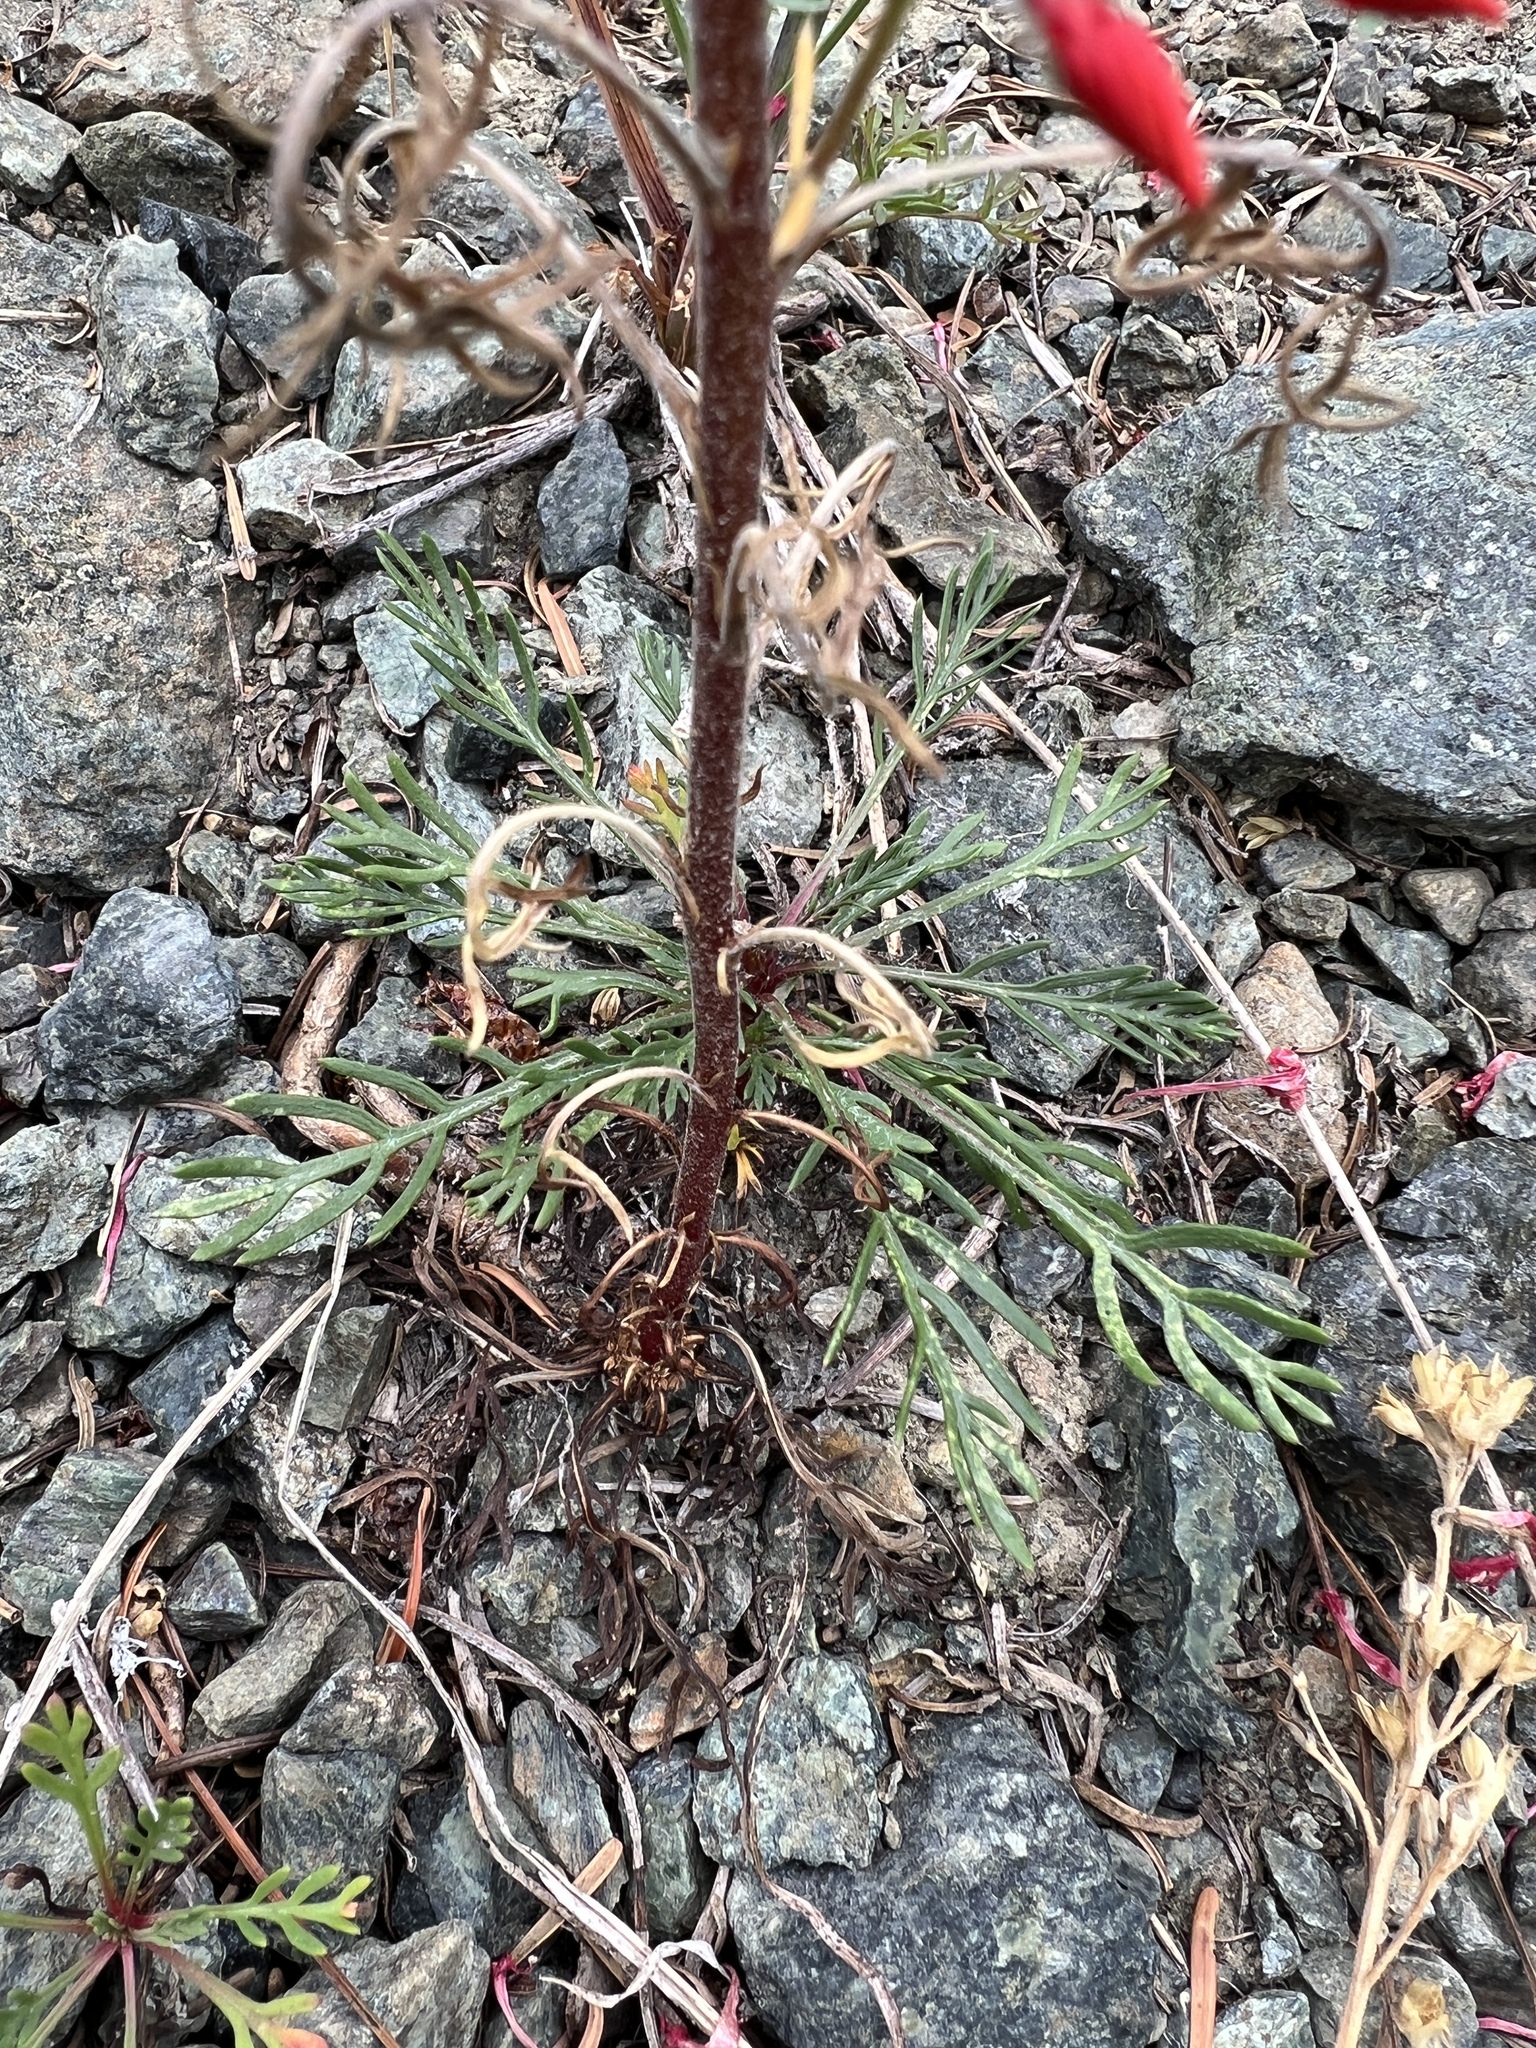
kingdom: Plantae
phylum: Tracheophyta
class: Magnoliopsida
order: Ericales
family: Polemoniaceae
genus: Ipomopsis
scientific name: Ipomopsis aggregata
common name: Scarlet gilia
